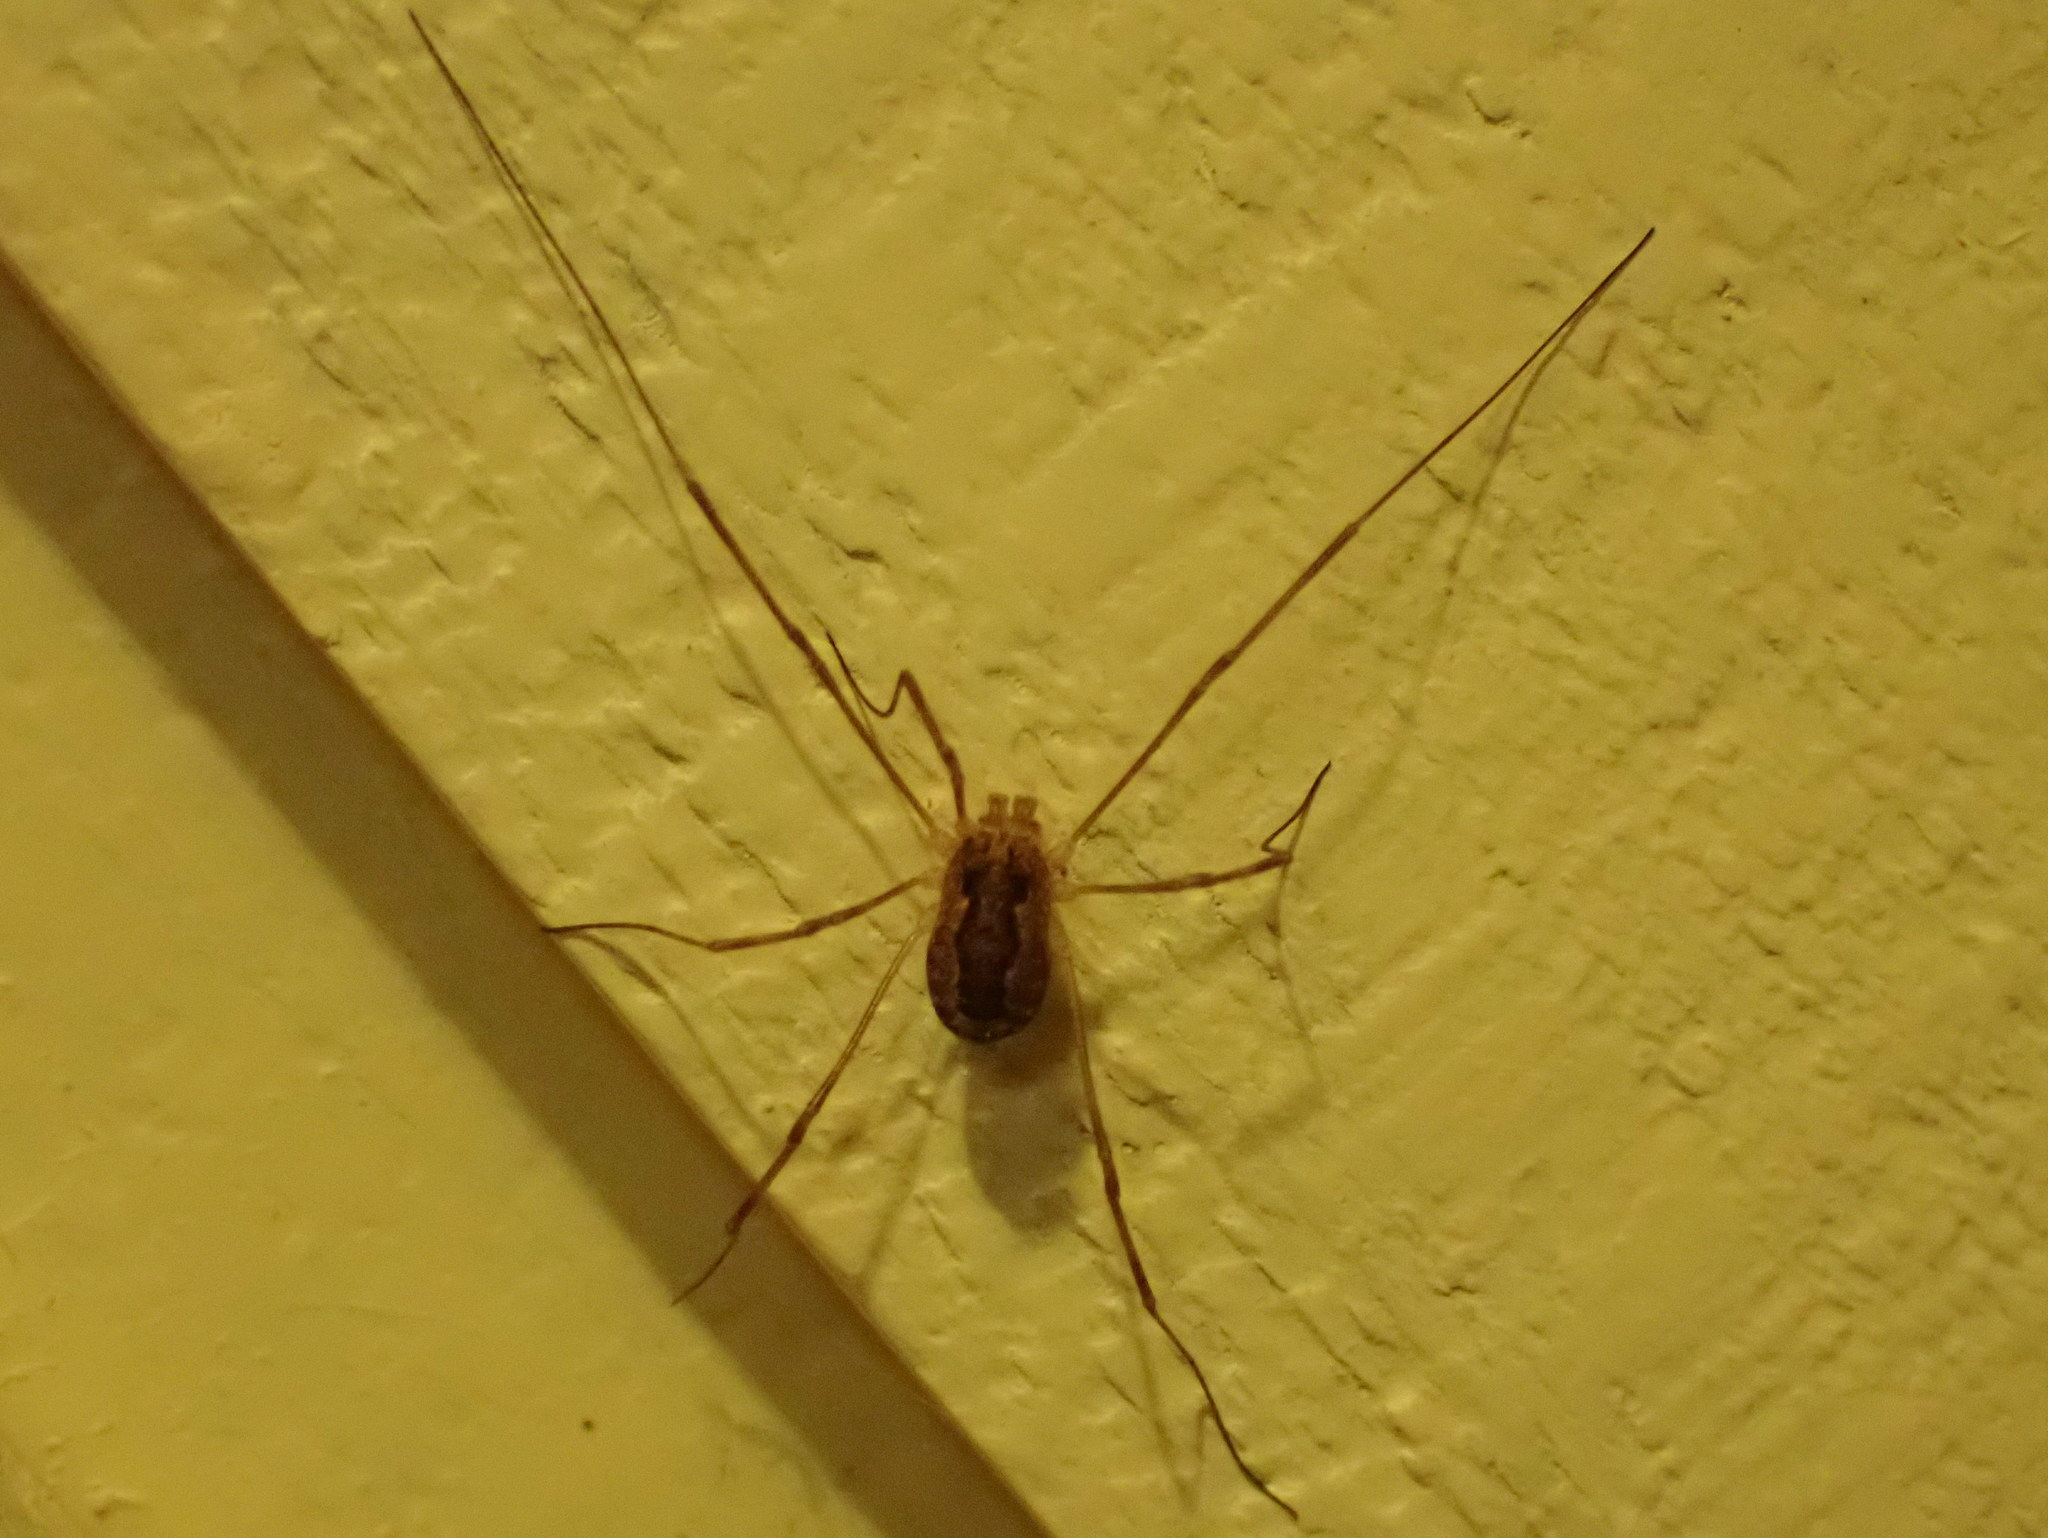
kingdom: Animalia
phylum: Arthropoda
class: Arachnida
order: Opiliones
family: Phalangiidae
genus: Rilaena
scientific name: Rilaena triangularis
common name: Spring harvestman
